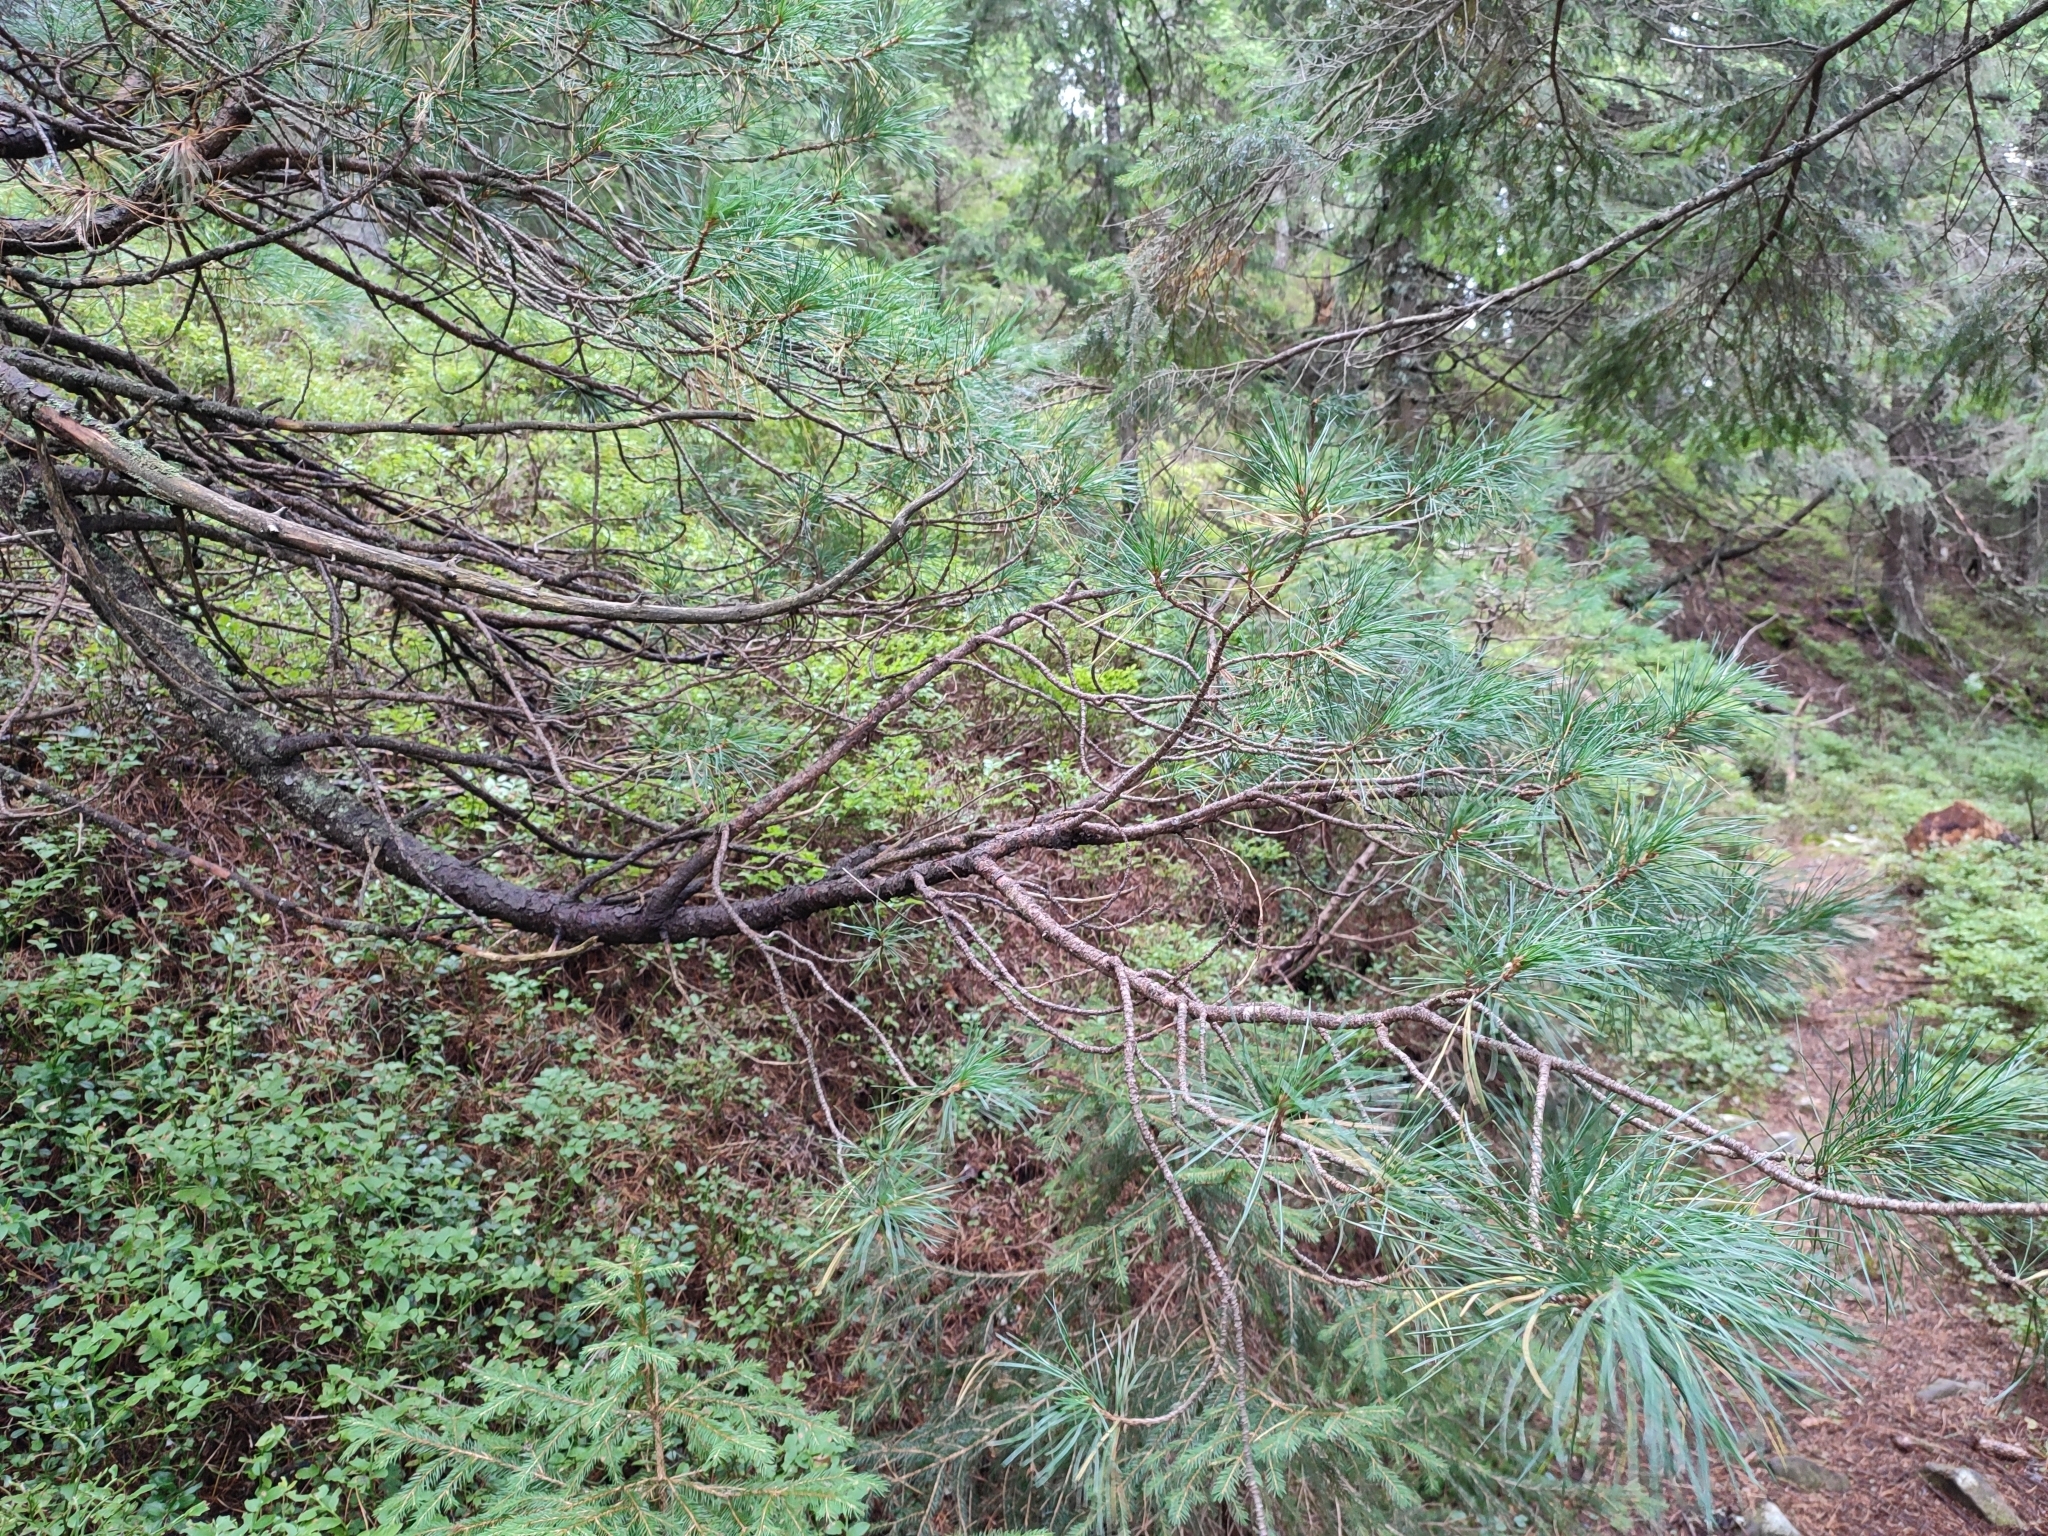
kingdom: Plantae
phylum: Tracheophyta
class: Pinopsida
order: Pinales
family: Pinaceae
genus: Pinus
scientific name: Pinus cembra
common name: Arolla pine
